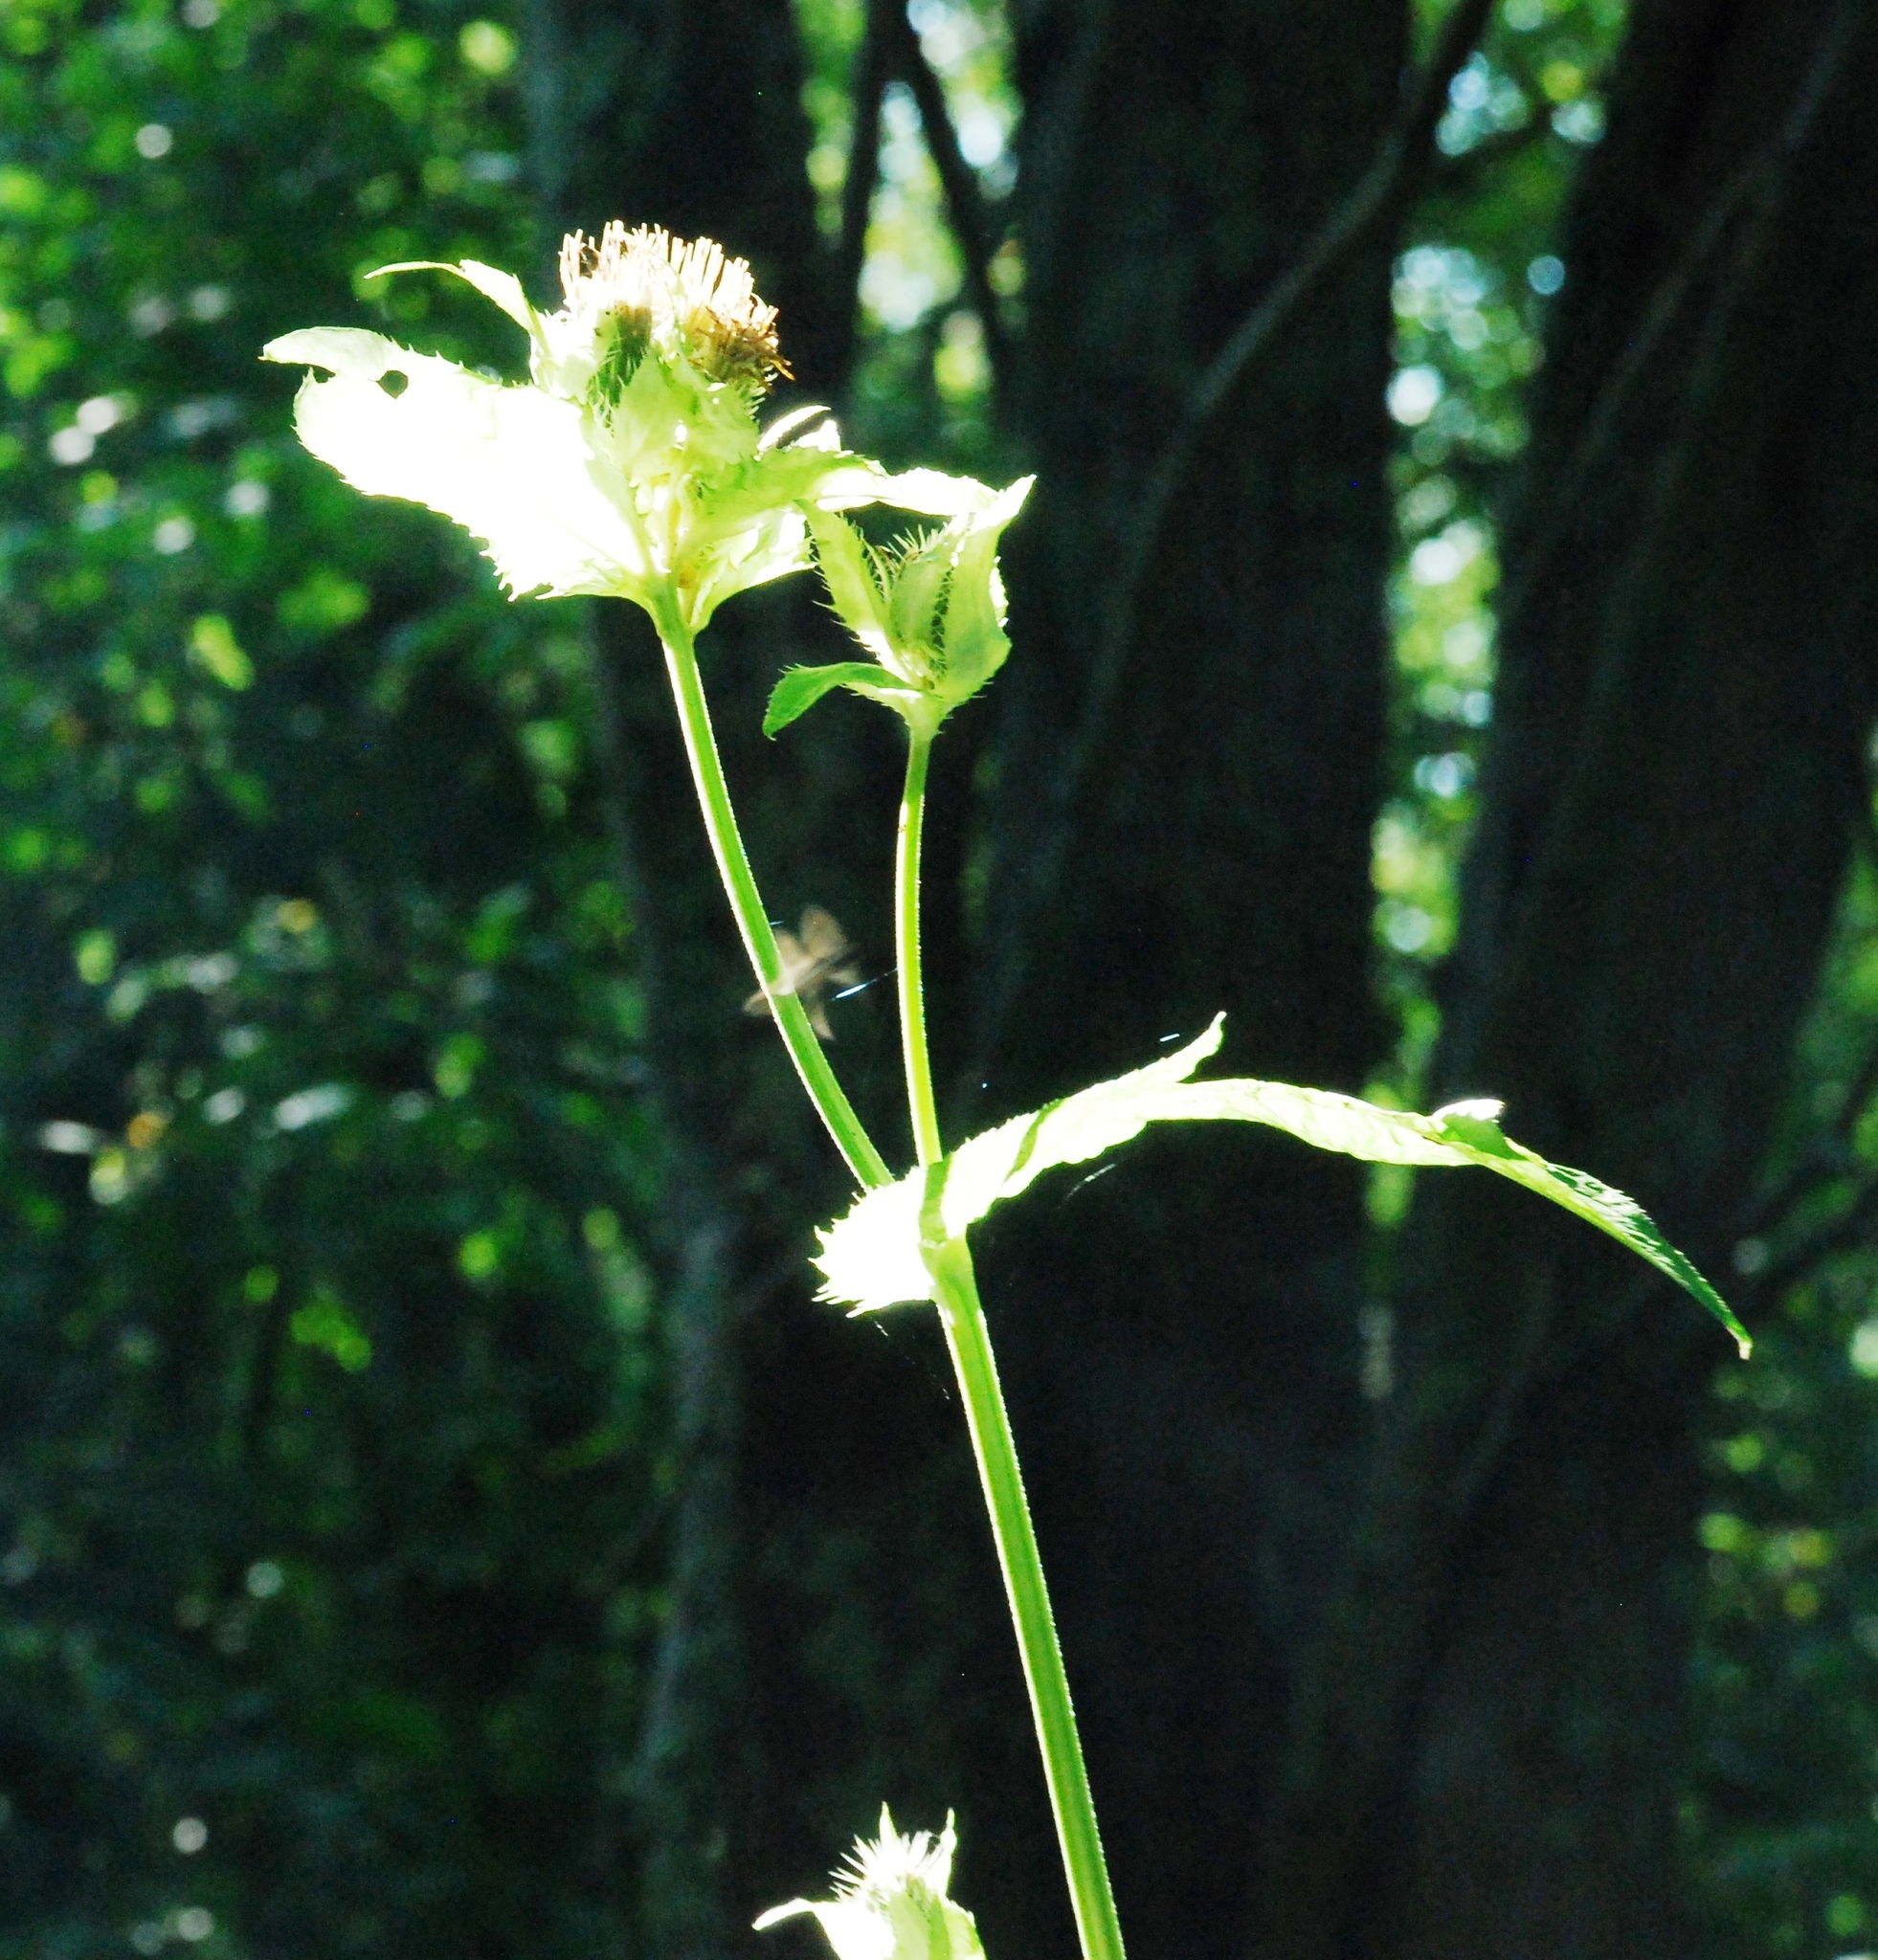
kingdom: Plantae
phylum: Tracheophyta
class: Magnoliopsida
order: Asterales
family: Asteraceae
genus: Cirsium
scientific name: Cirsium oleraceum
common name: Cabbage thistle
